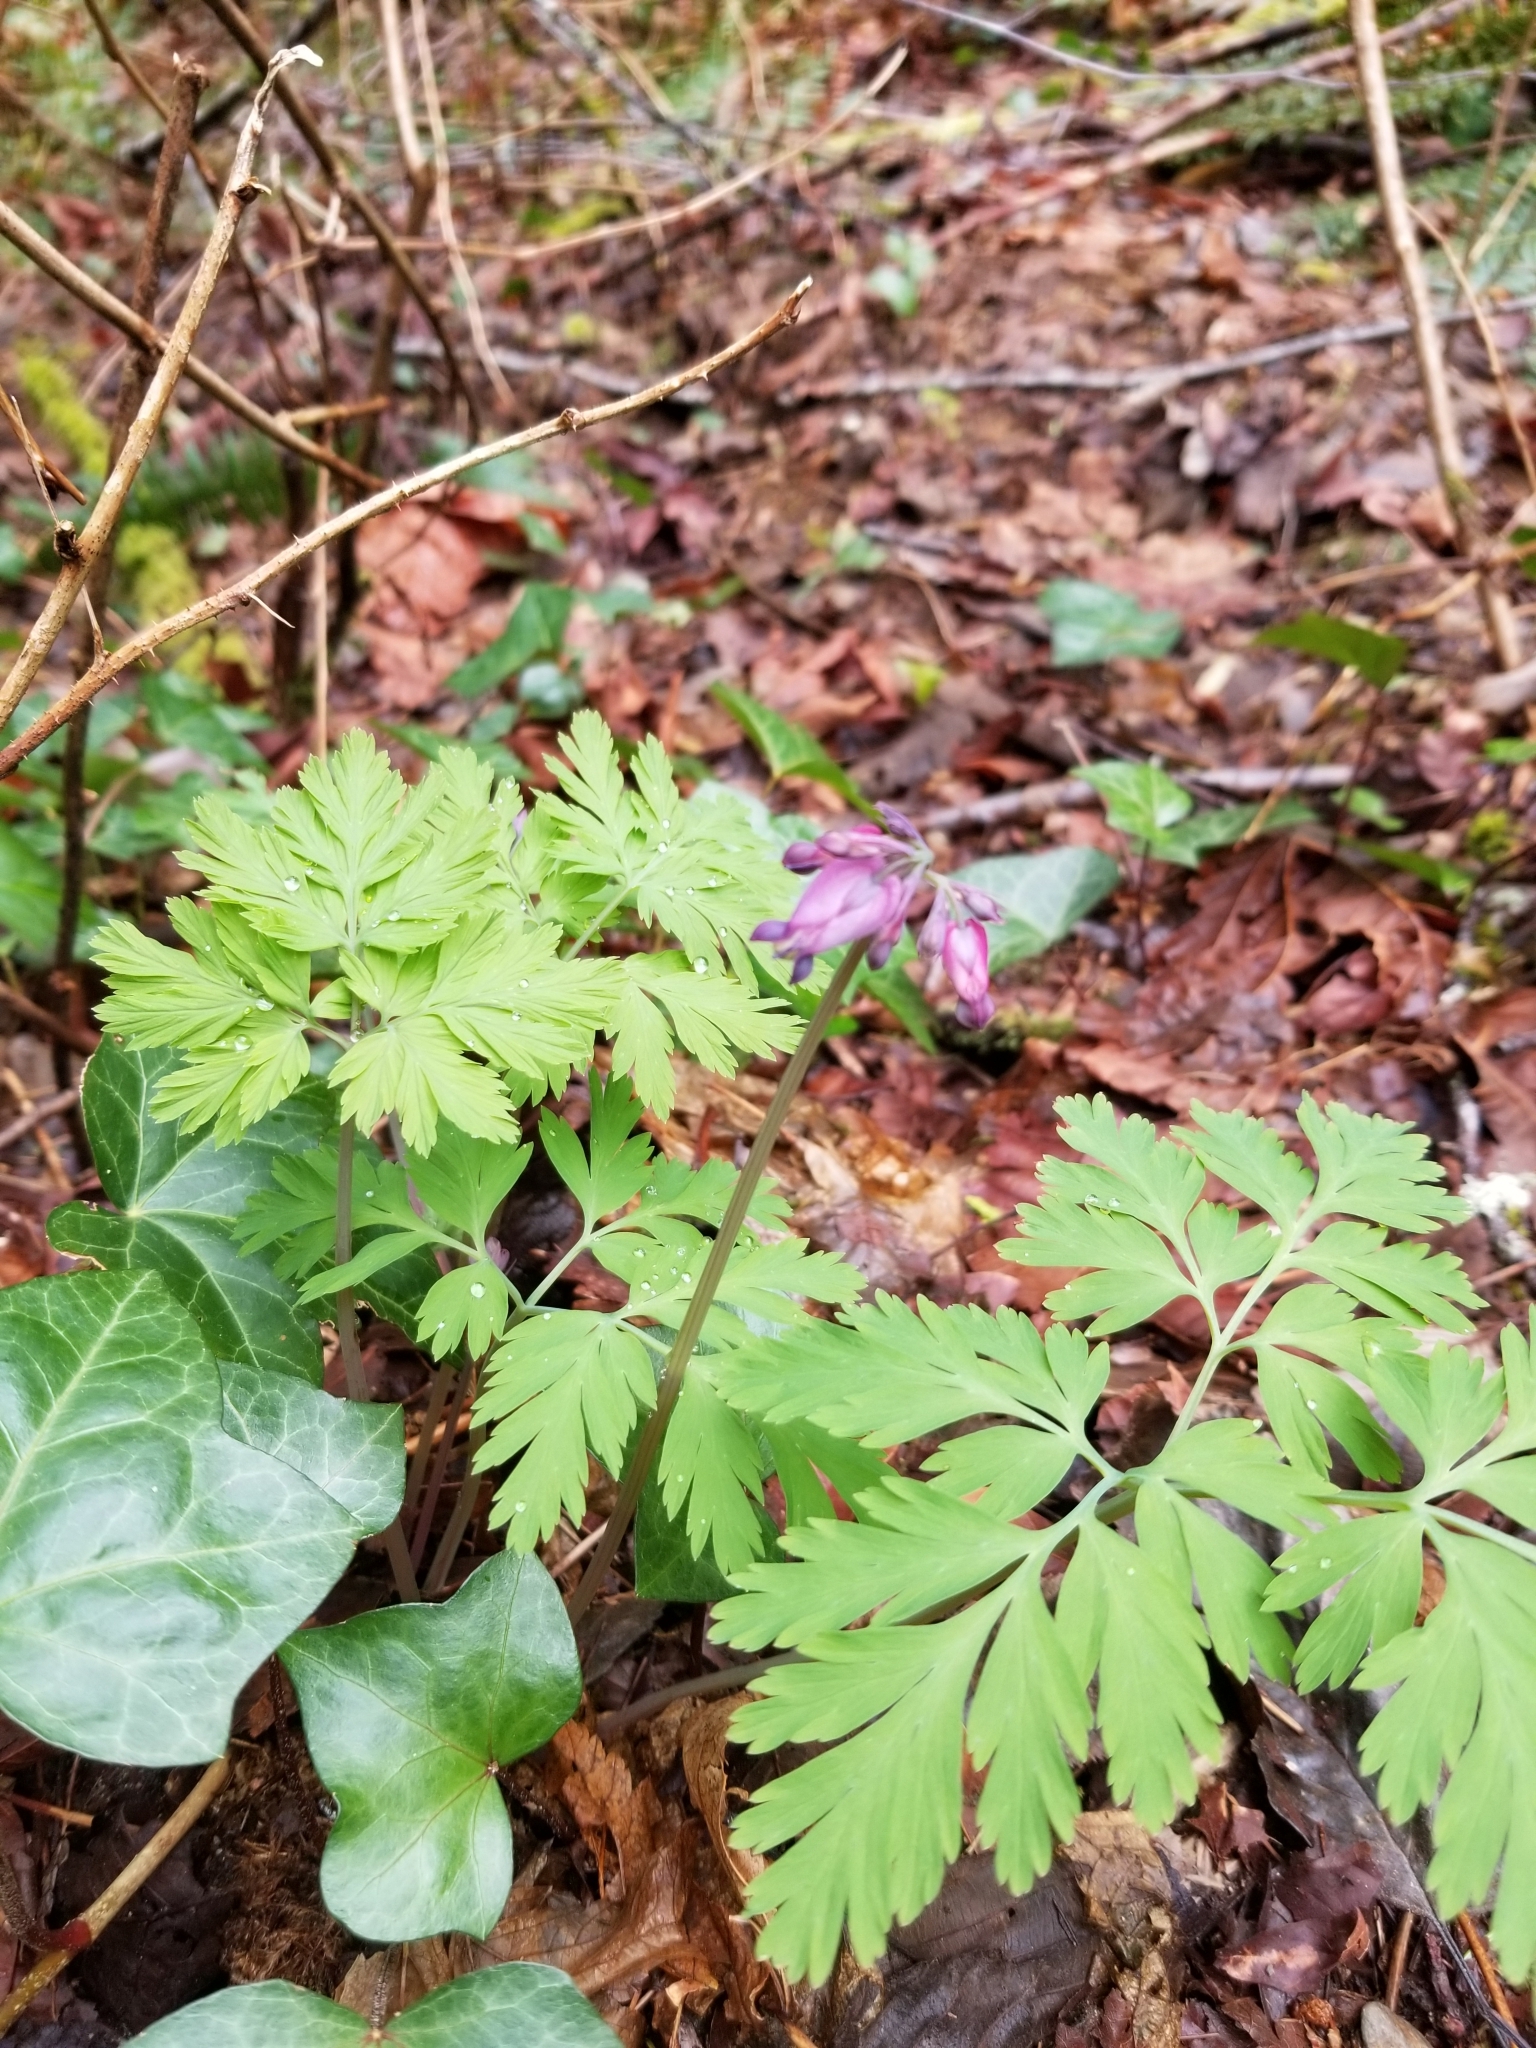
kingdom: Plantae
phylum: Tracheophyta
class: Magnoliopsida
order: Ranunculales
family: Papaveraceae
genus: Dicentra
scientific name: Dicentra formosa
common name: Bleeding-heart
